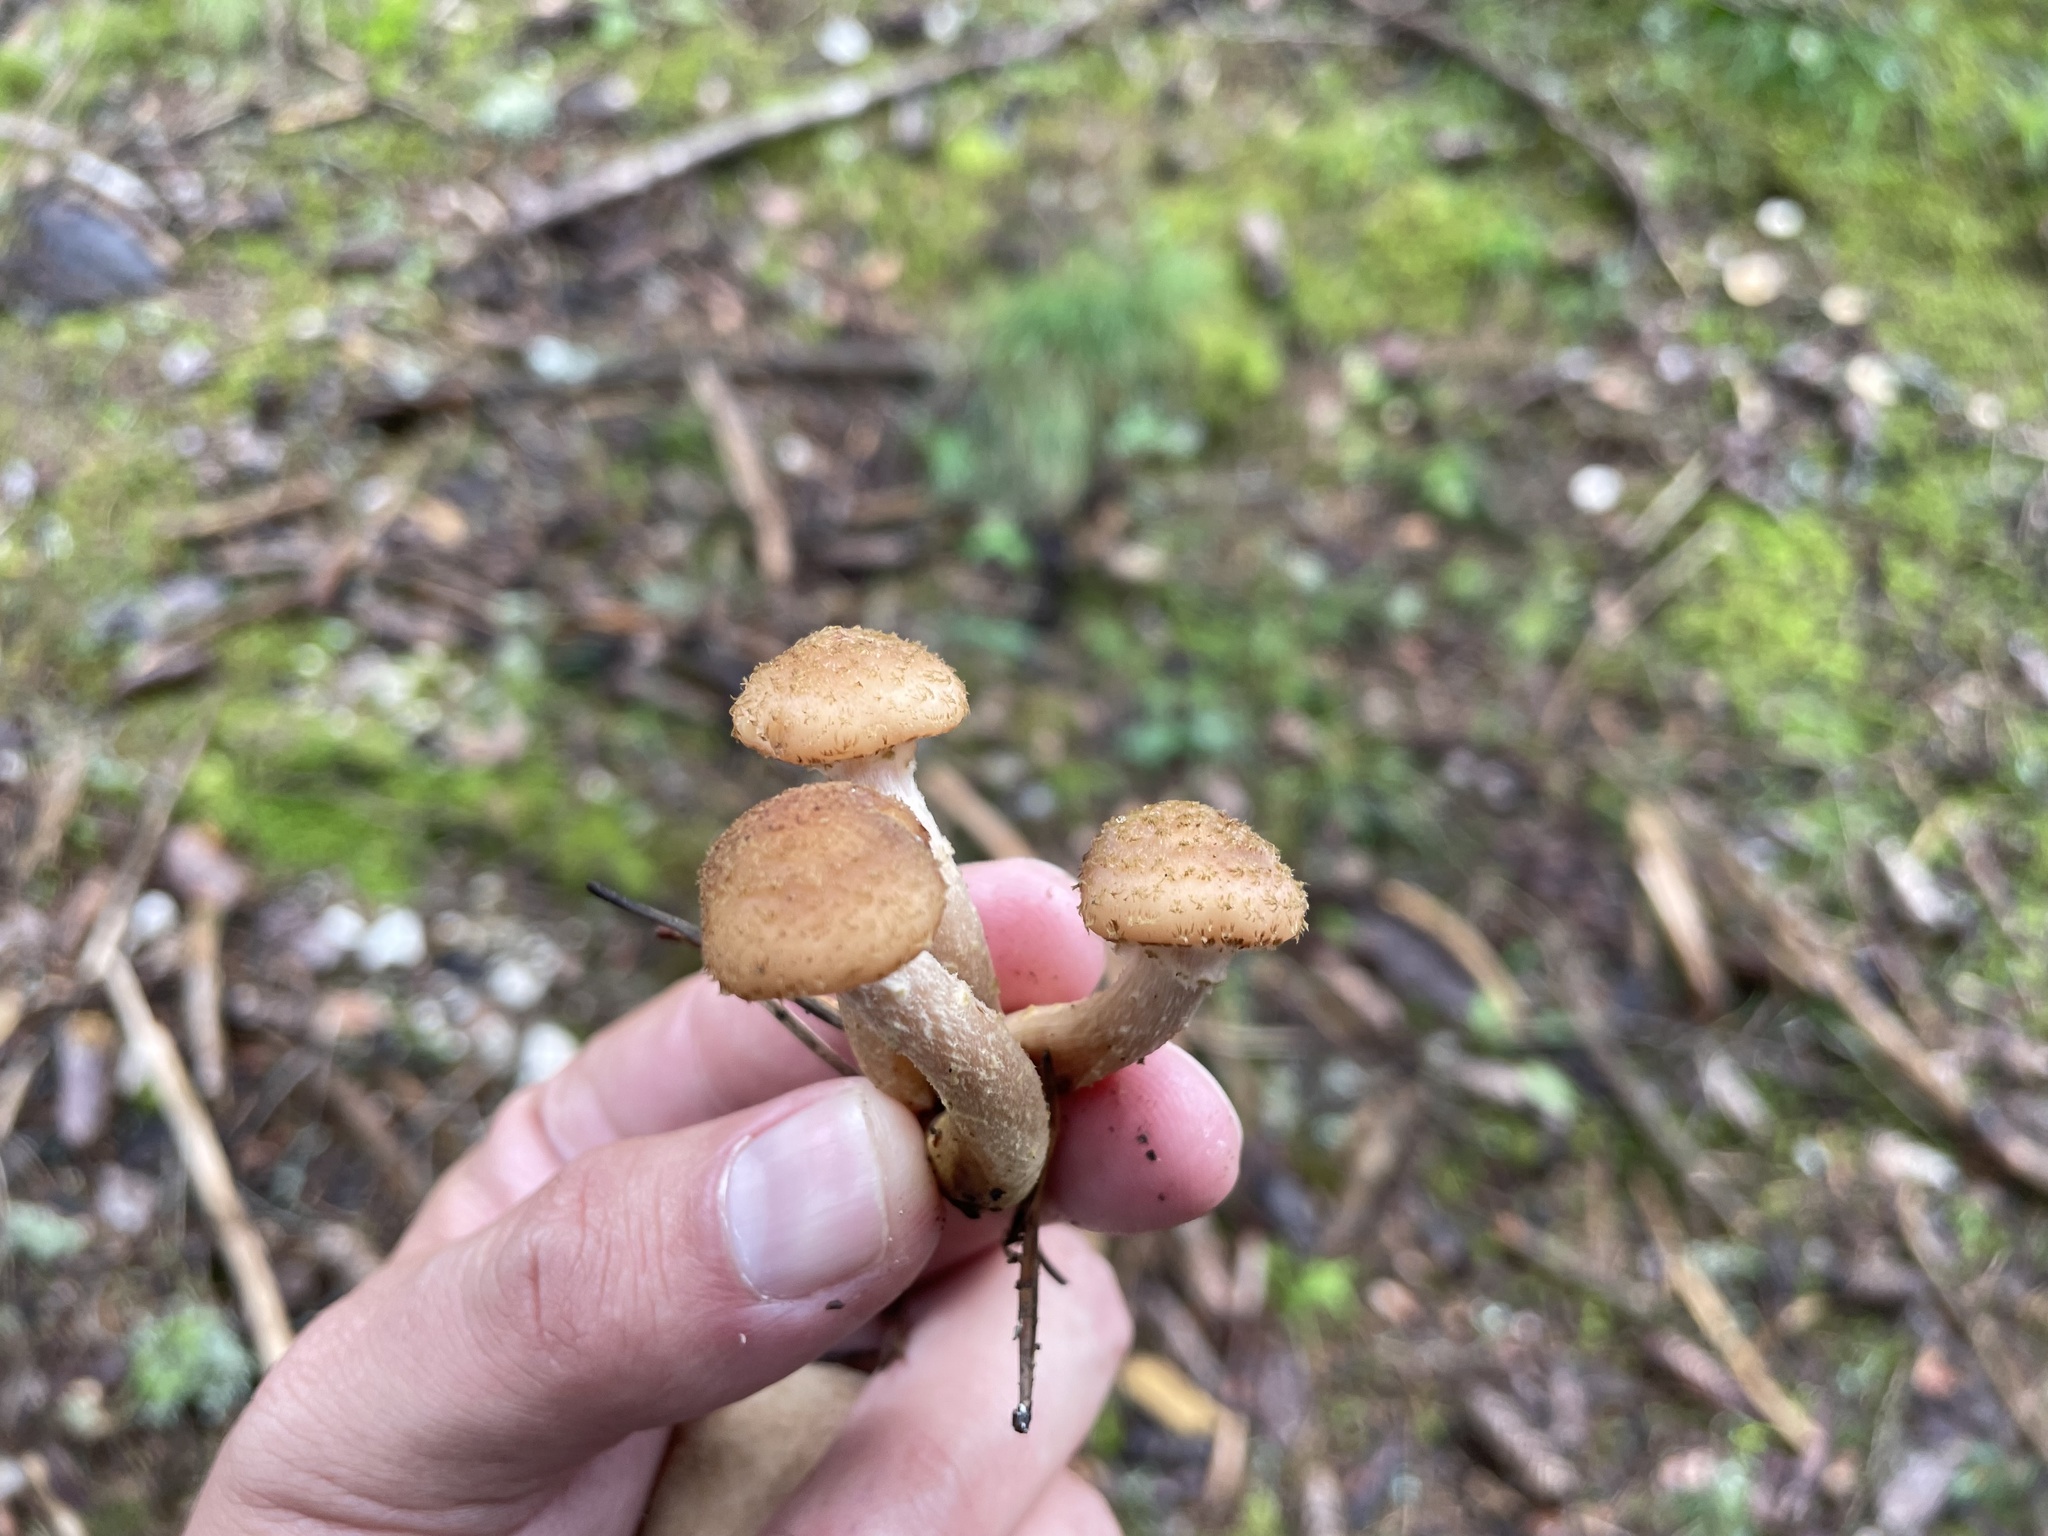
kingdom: Fungi
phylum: Basidiomycota
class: Agaricomycetes
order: Agaricales
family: Physalacriaceae
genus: Armillaria
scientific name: Armillaria
